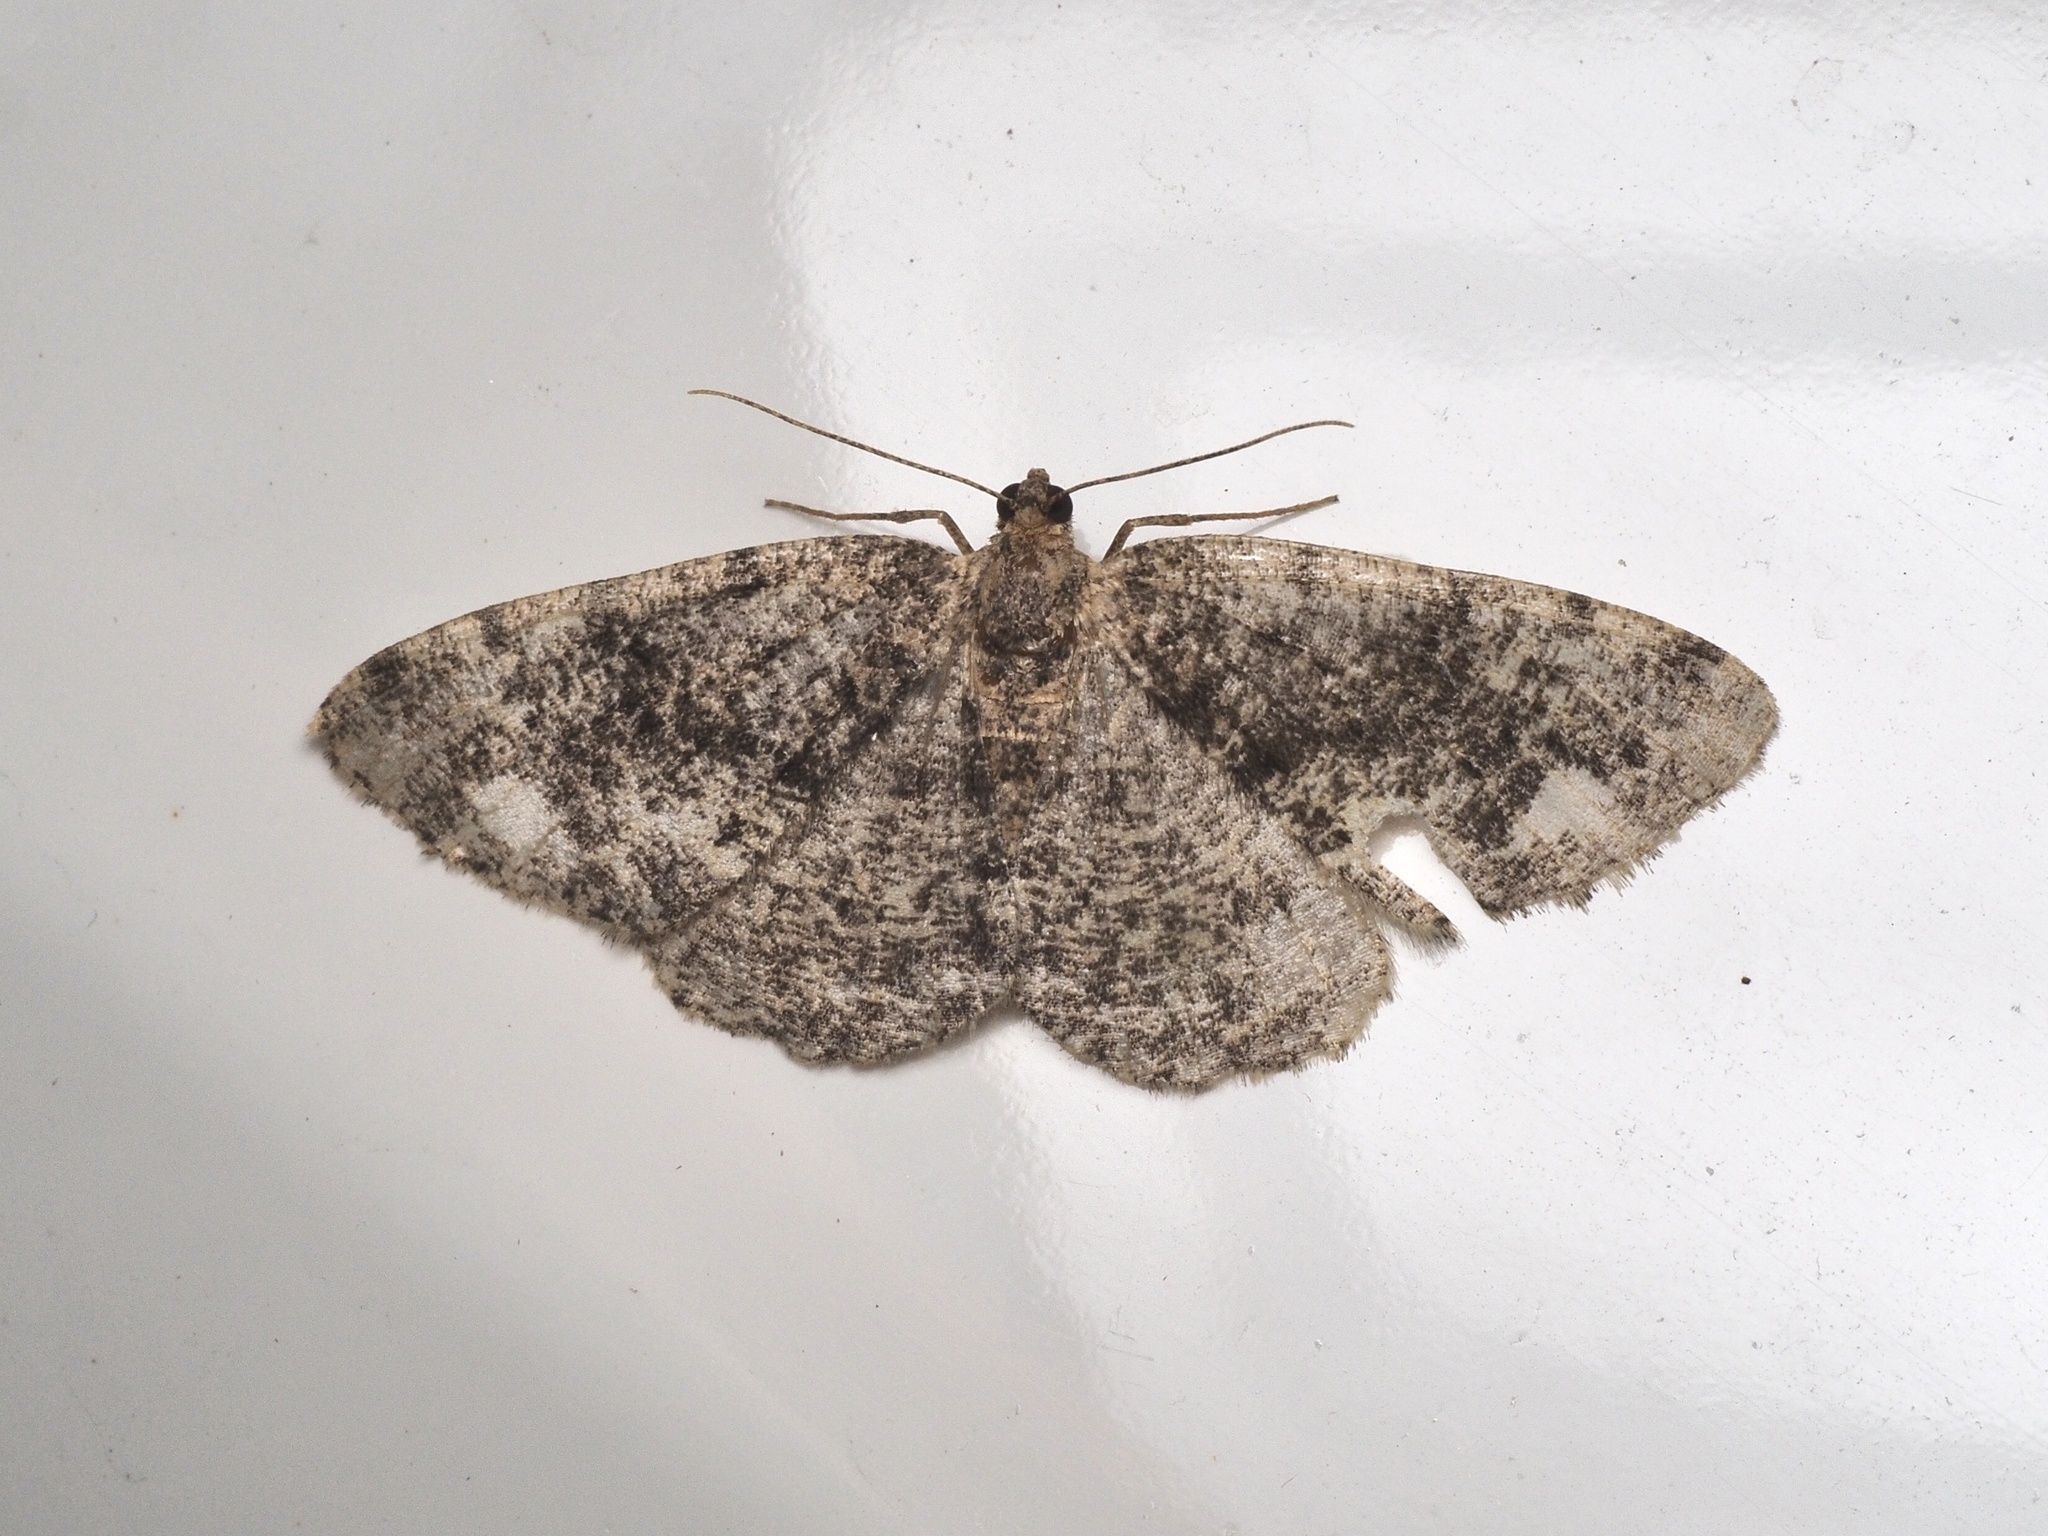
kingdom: Animalia
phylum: Arthropoda
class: Insecta
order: Lepidoptera
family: Geometridae
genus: Parectropis
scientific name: Parectropis similaria
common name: Brindled white-spot
